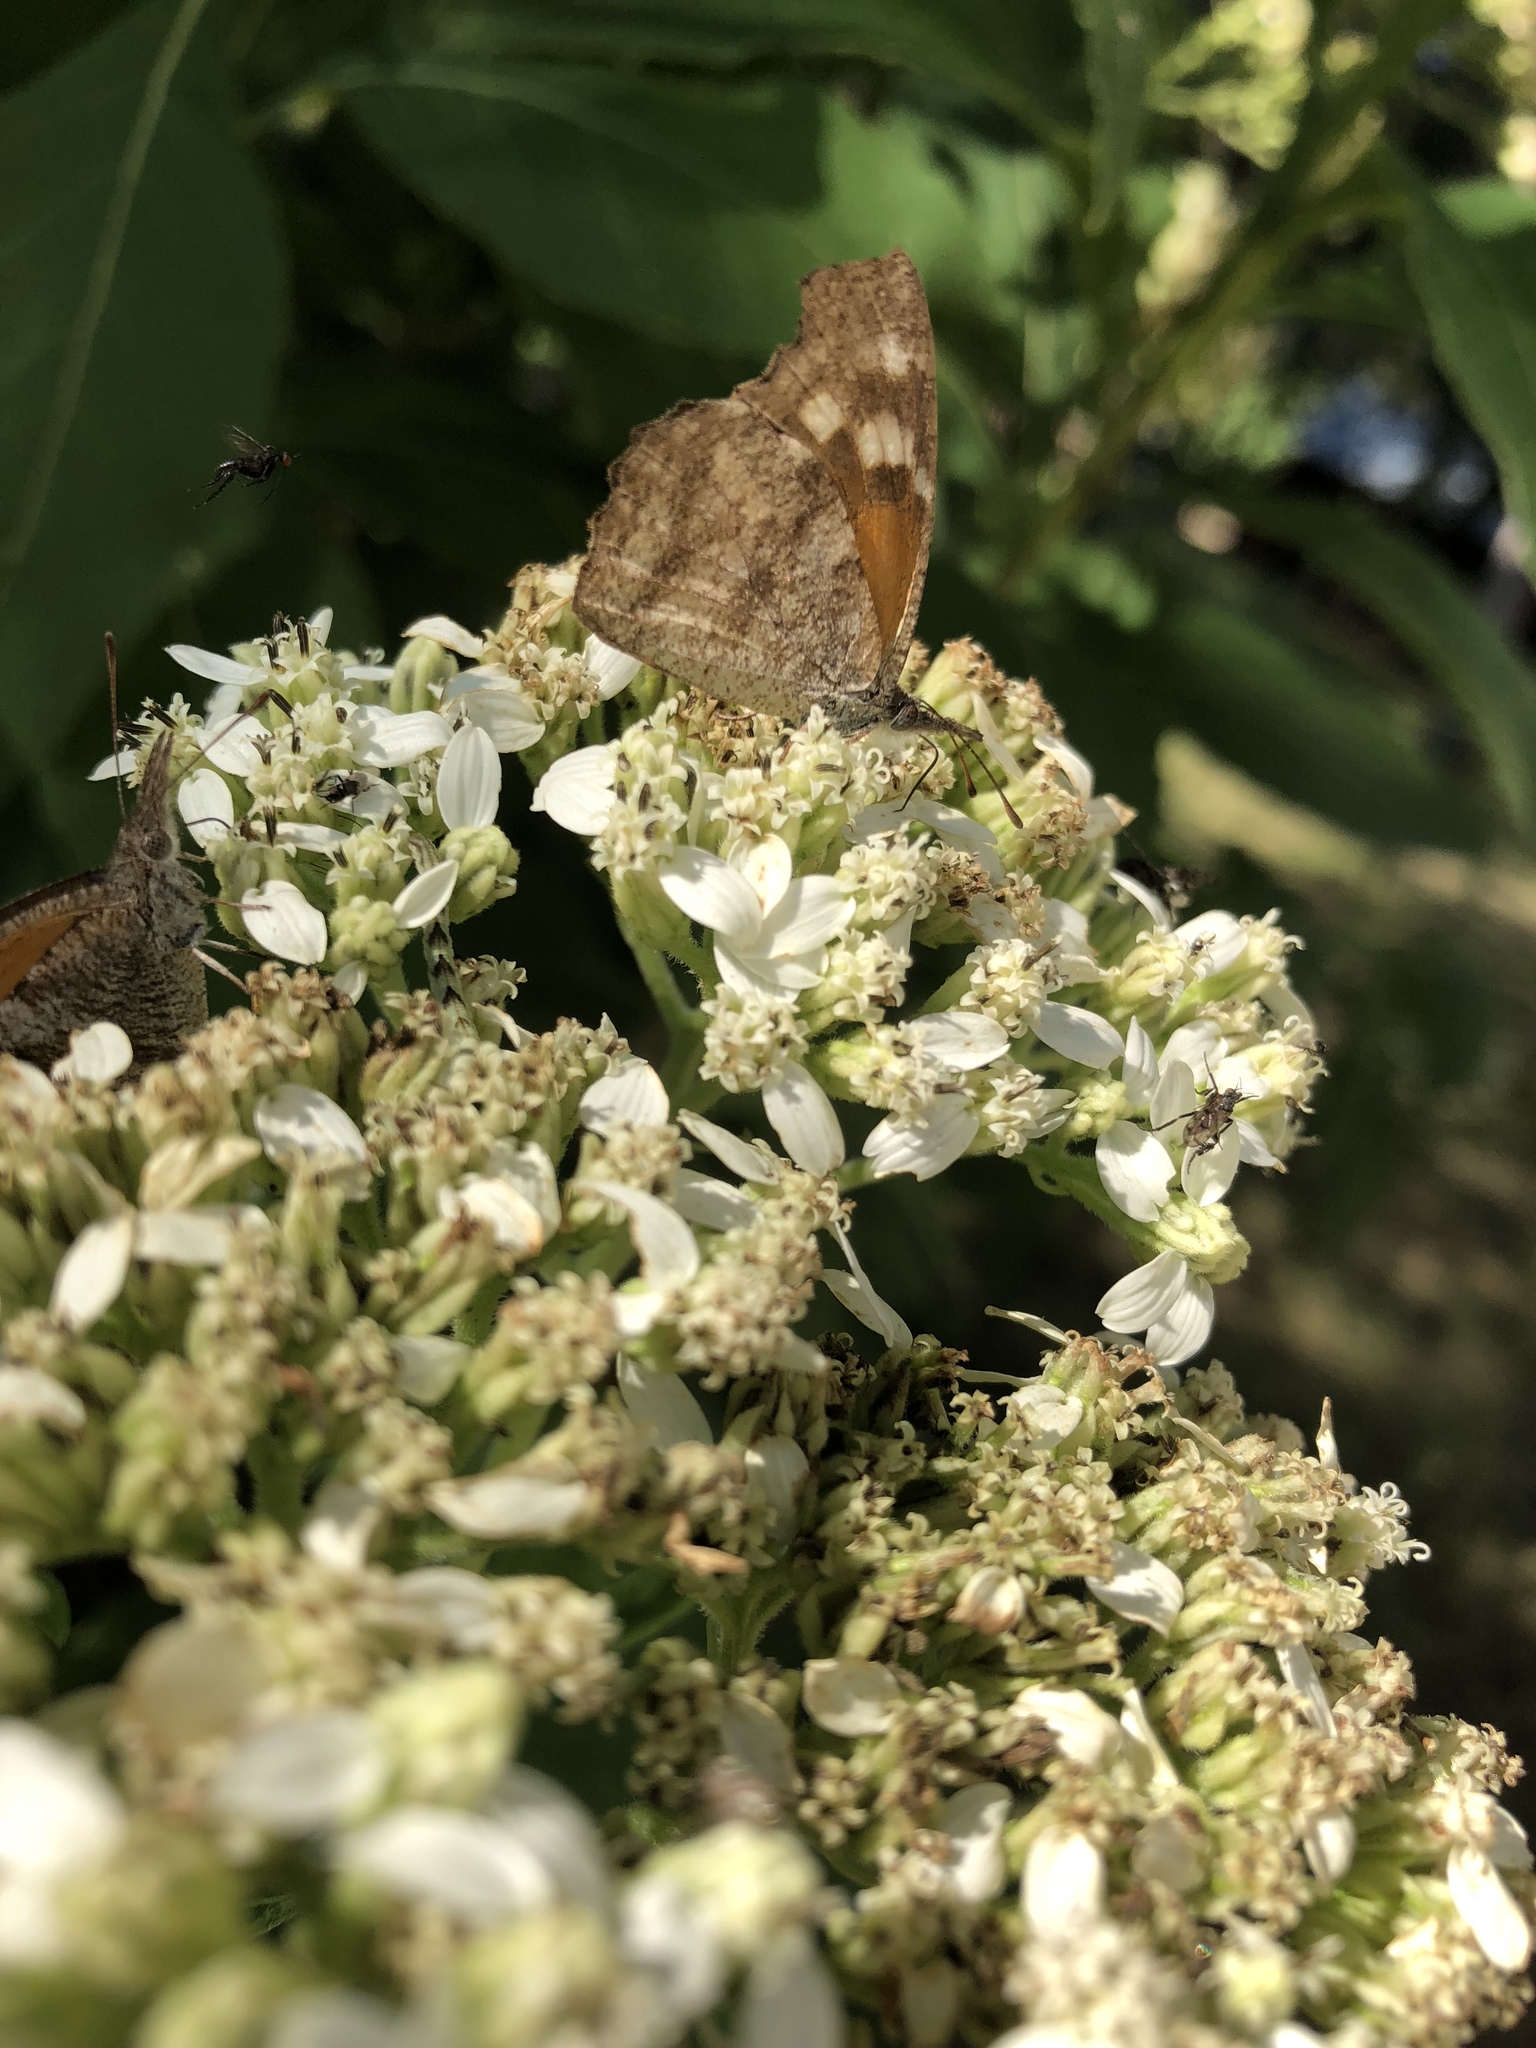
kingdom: Animalia
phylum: Arthropoda
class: Insecta
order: Lepidoptera
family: Nymphalidae
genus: Libytheana
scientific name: Libytheana carinenta
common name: American snout
